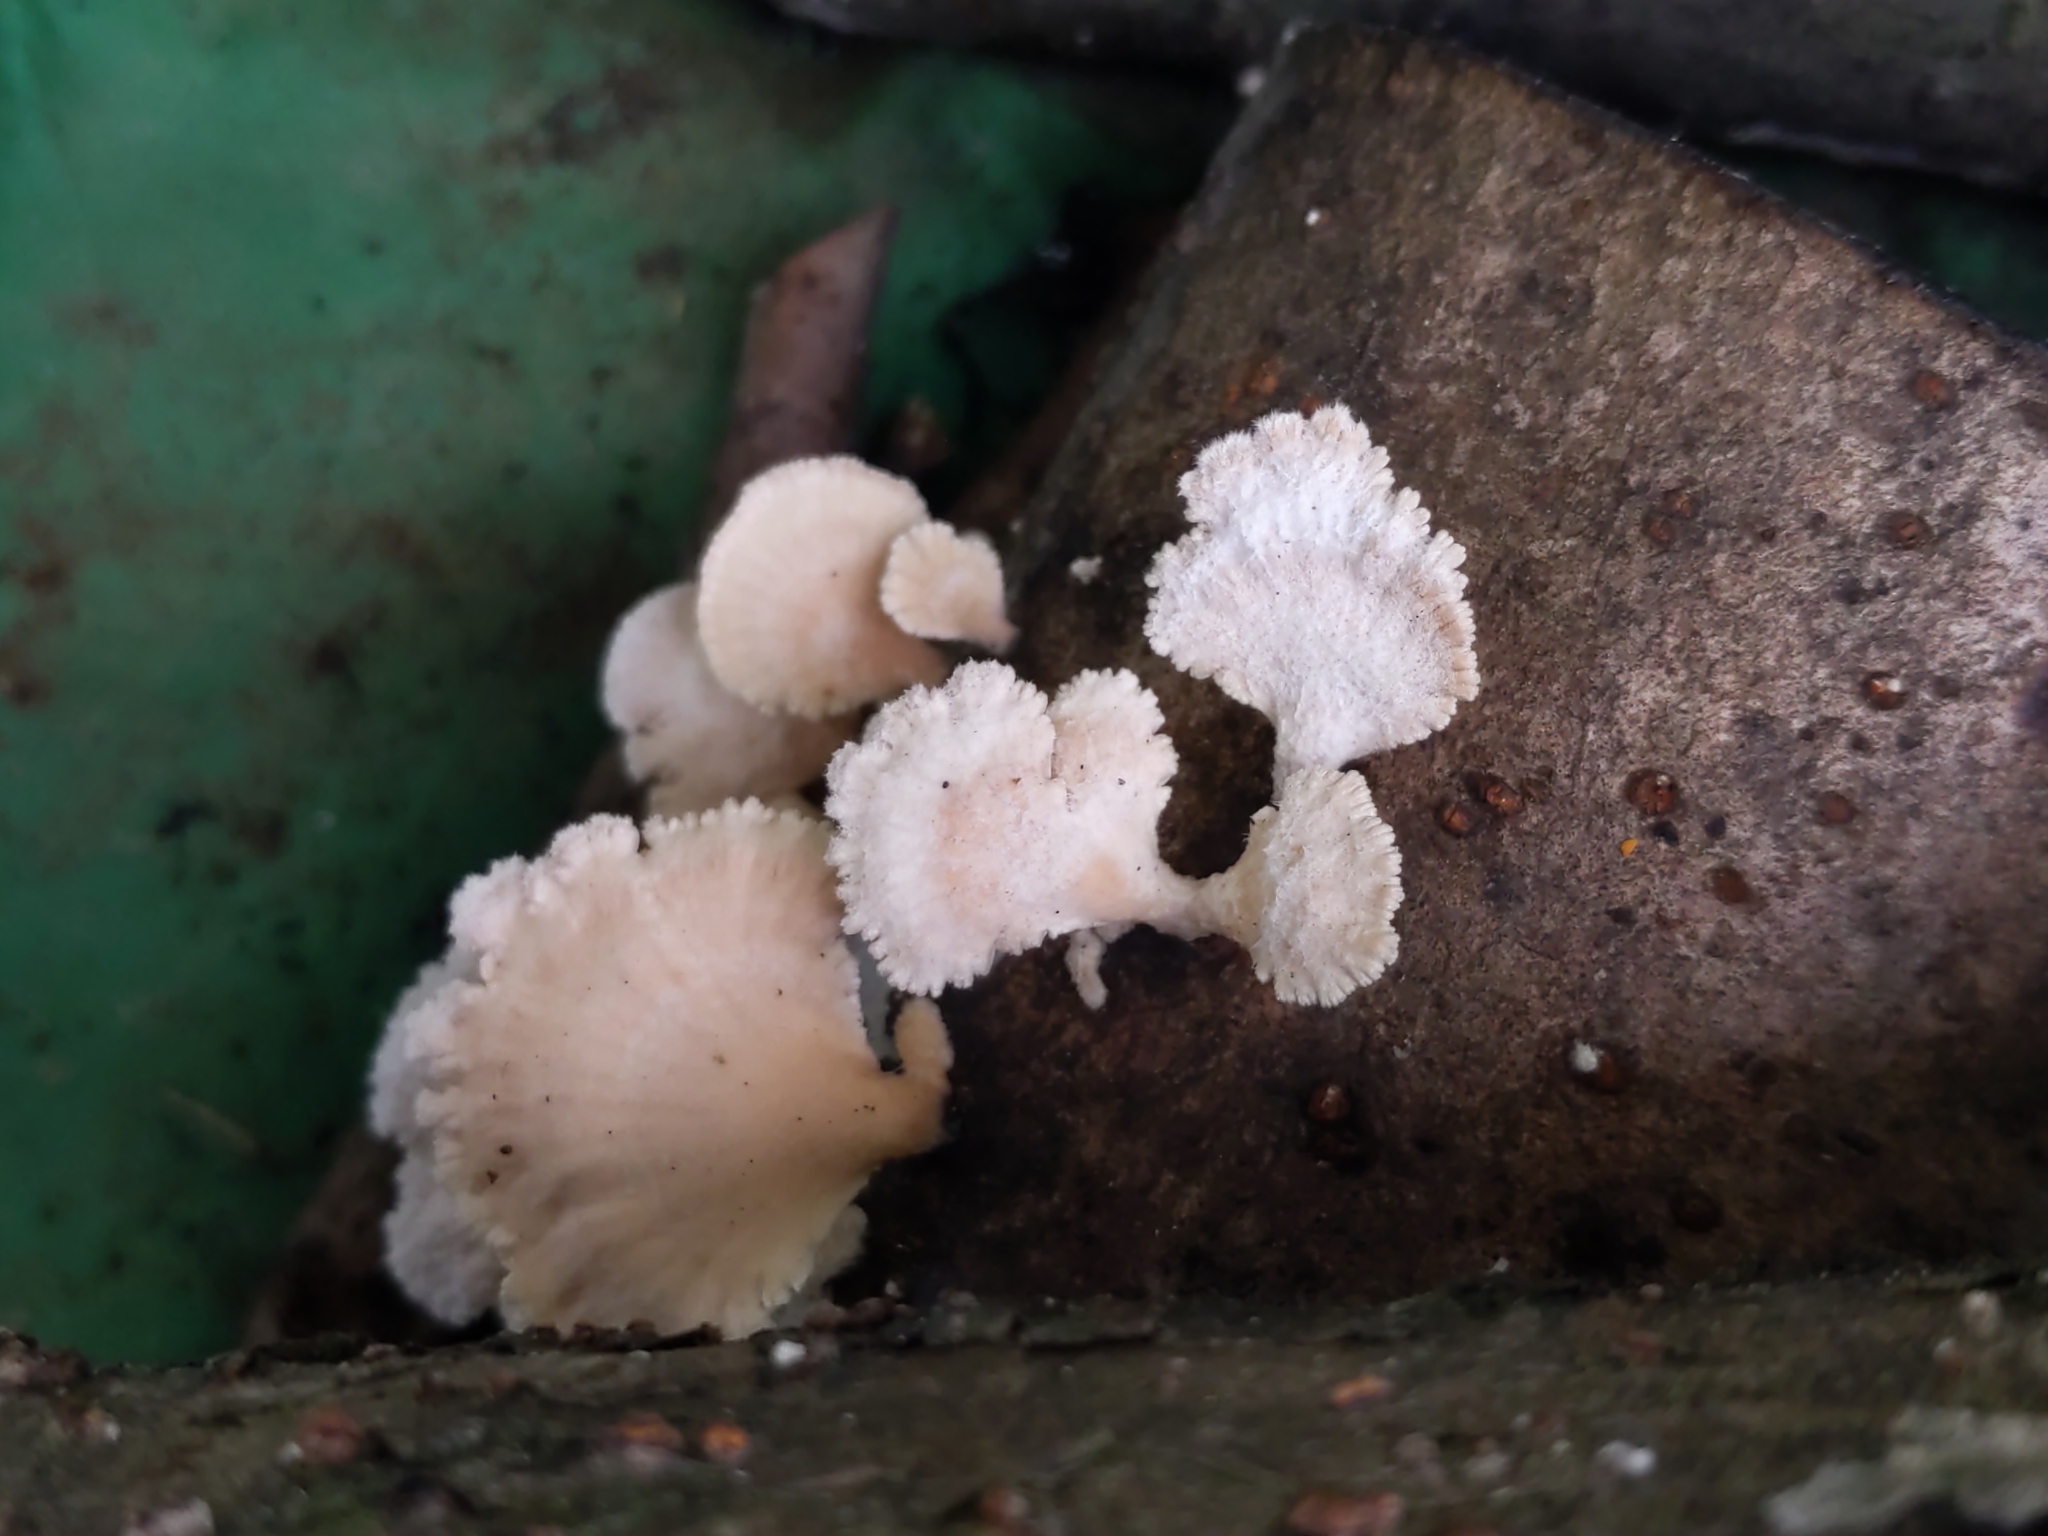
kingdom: Fungi
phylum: Basidiomycota
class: Agaricomycetes
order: Agaricales
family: Schizophyllaceae
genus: Schizophyllum
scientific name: Schizophyllum commune
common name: Common porecrust
